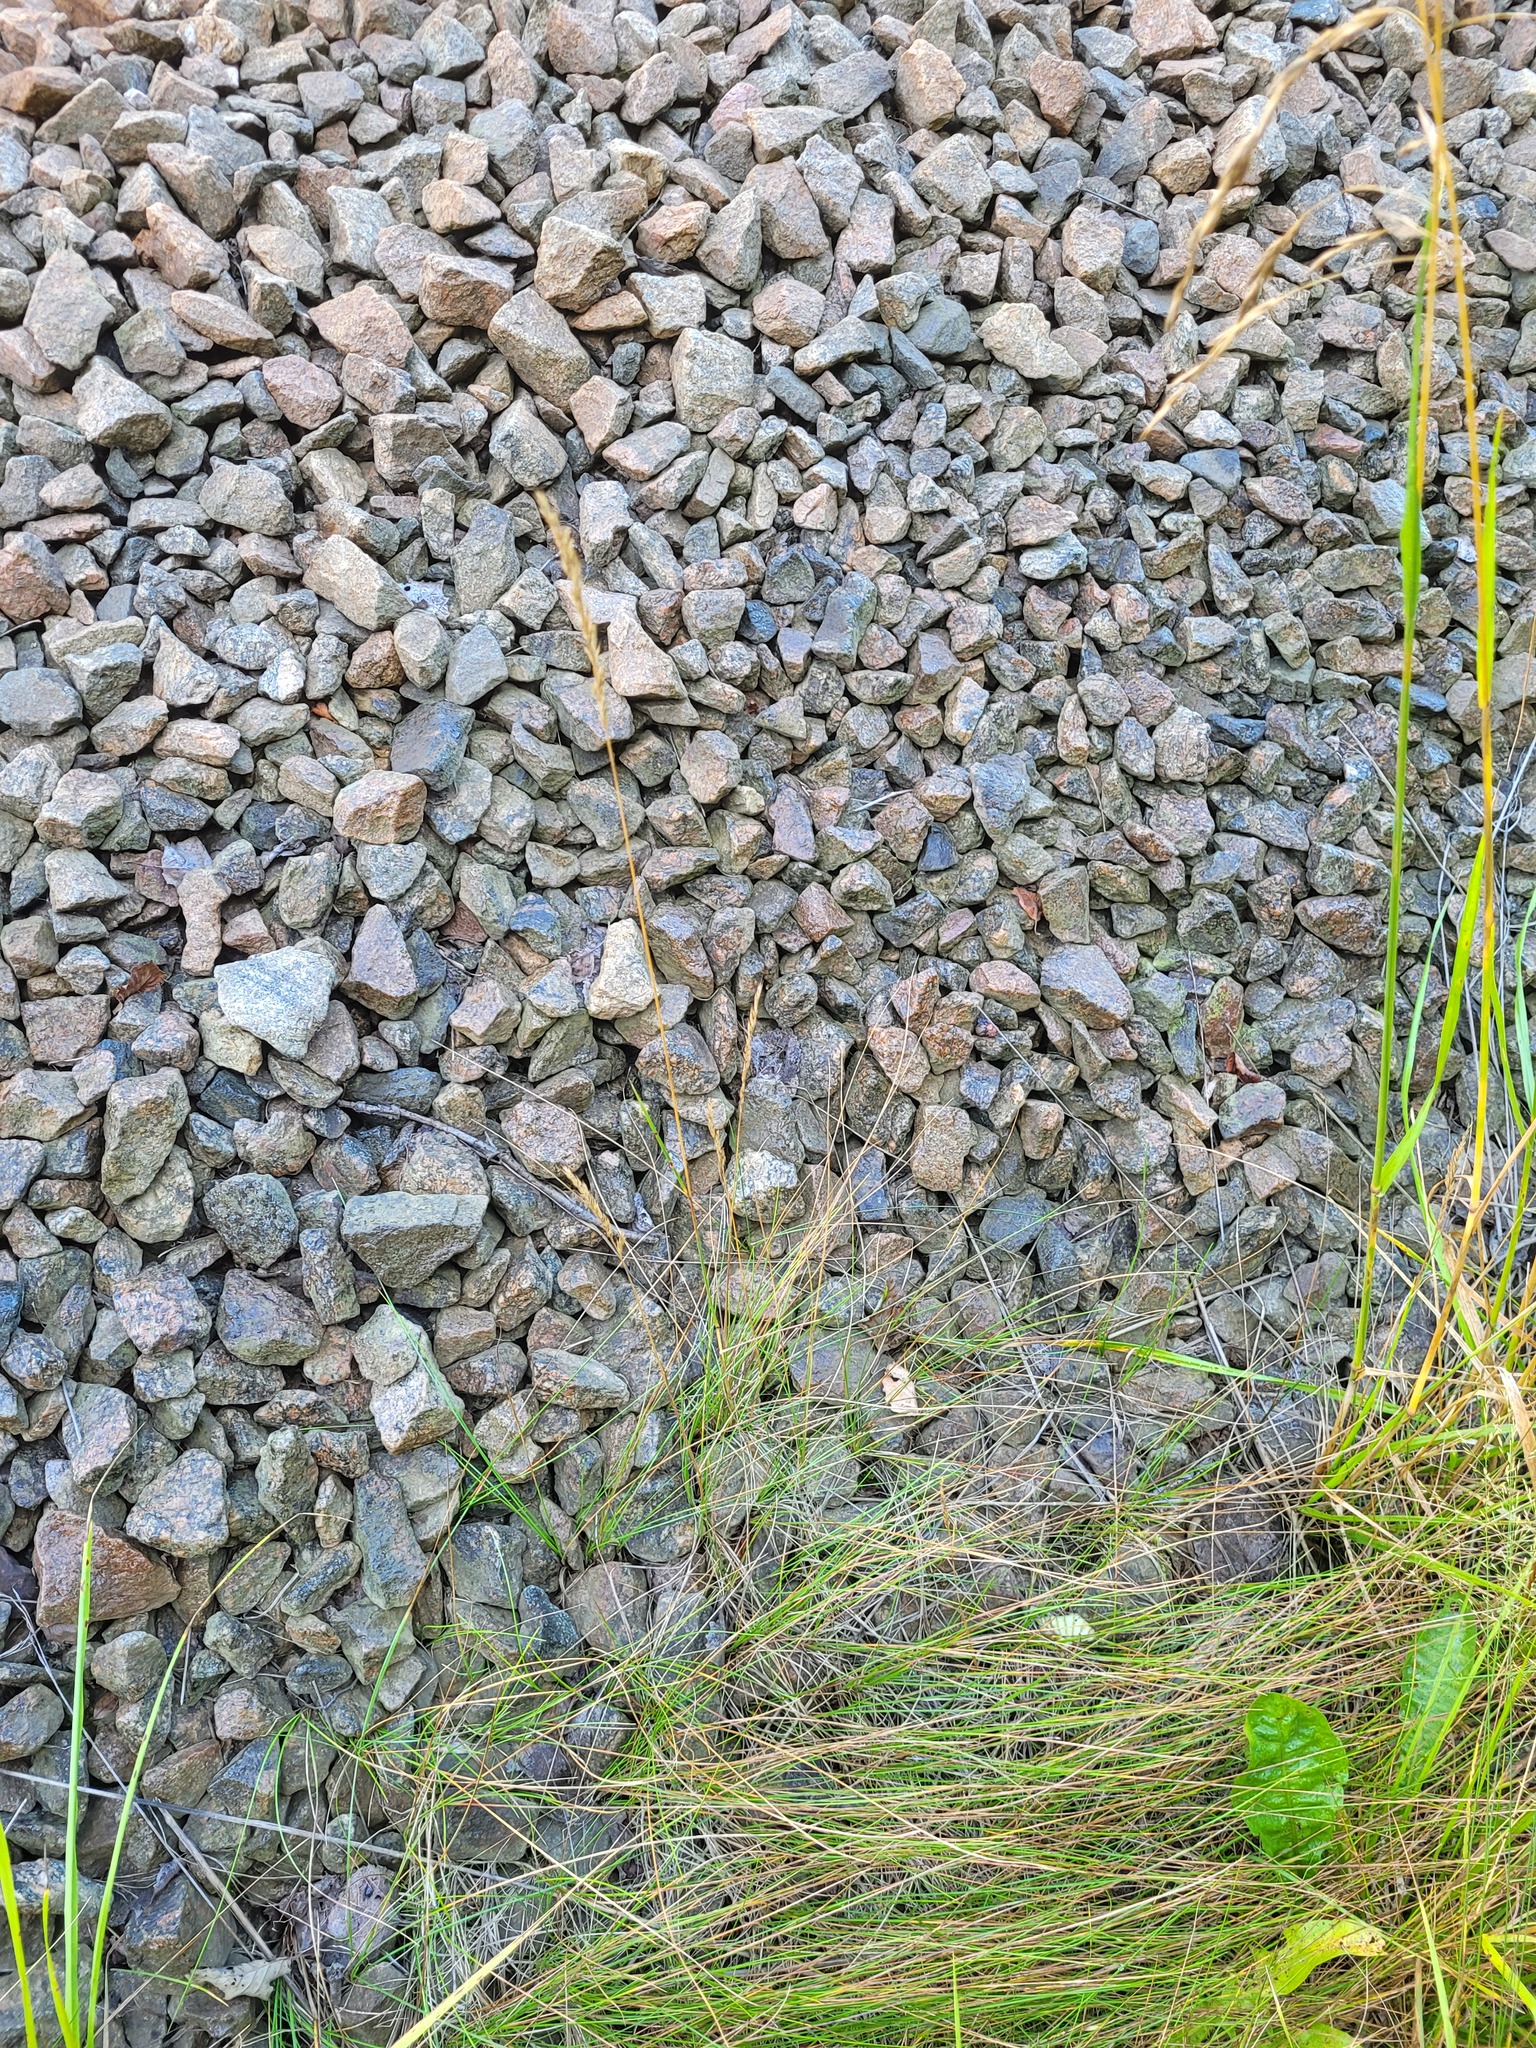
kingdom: Plantae
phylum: Tracheophyta
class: Liliopsida
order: Poales
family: Poaceae
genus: Festuca
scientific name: Festuca rubra
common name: Red fescue
